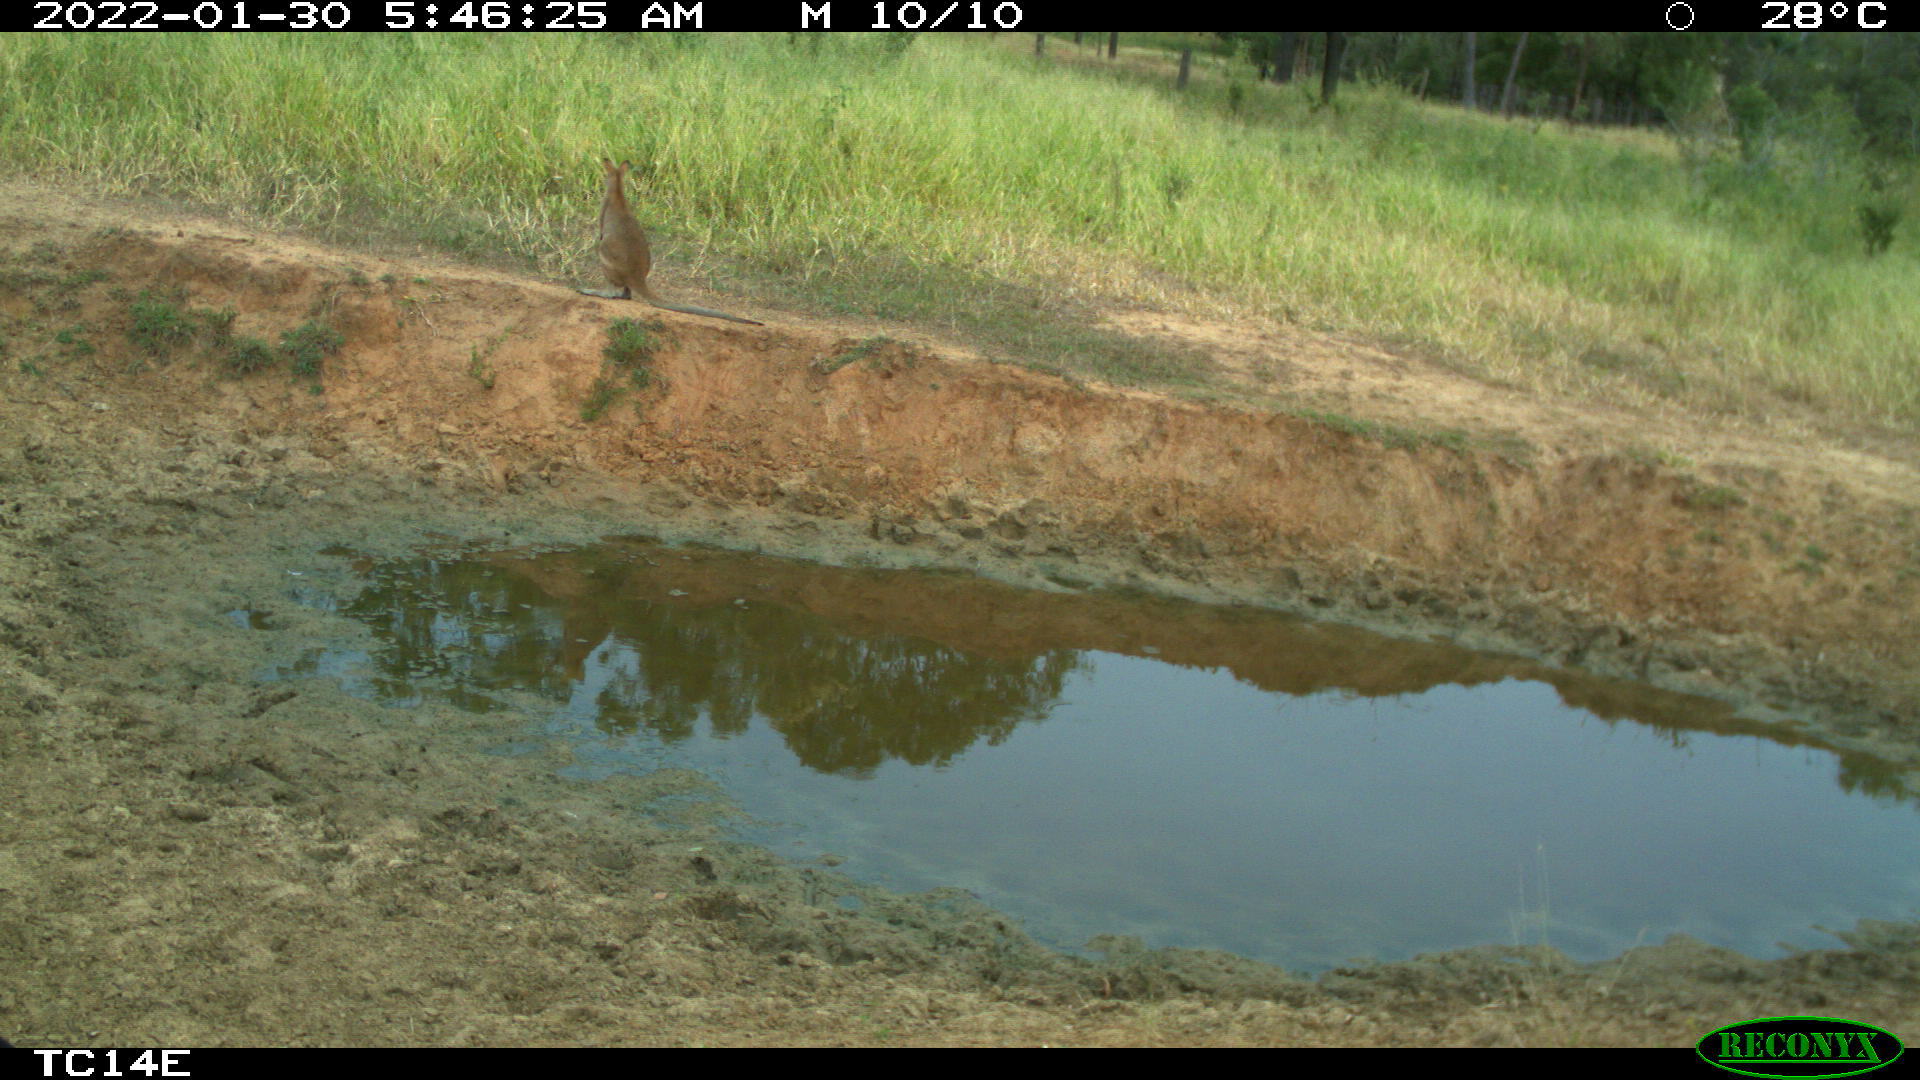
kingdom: Animalia
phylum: Chordata
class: Mammalia
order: Diprotodontia
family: Macropodidae
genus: Macropus
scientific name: Macropus agilis
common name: Agile wallaby
